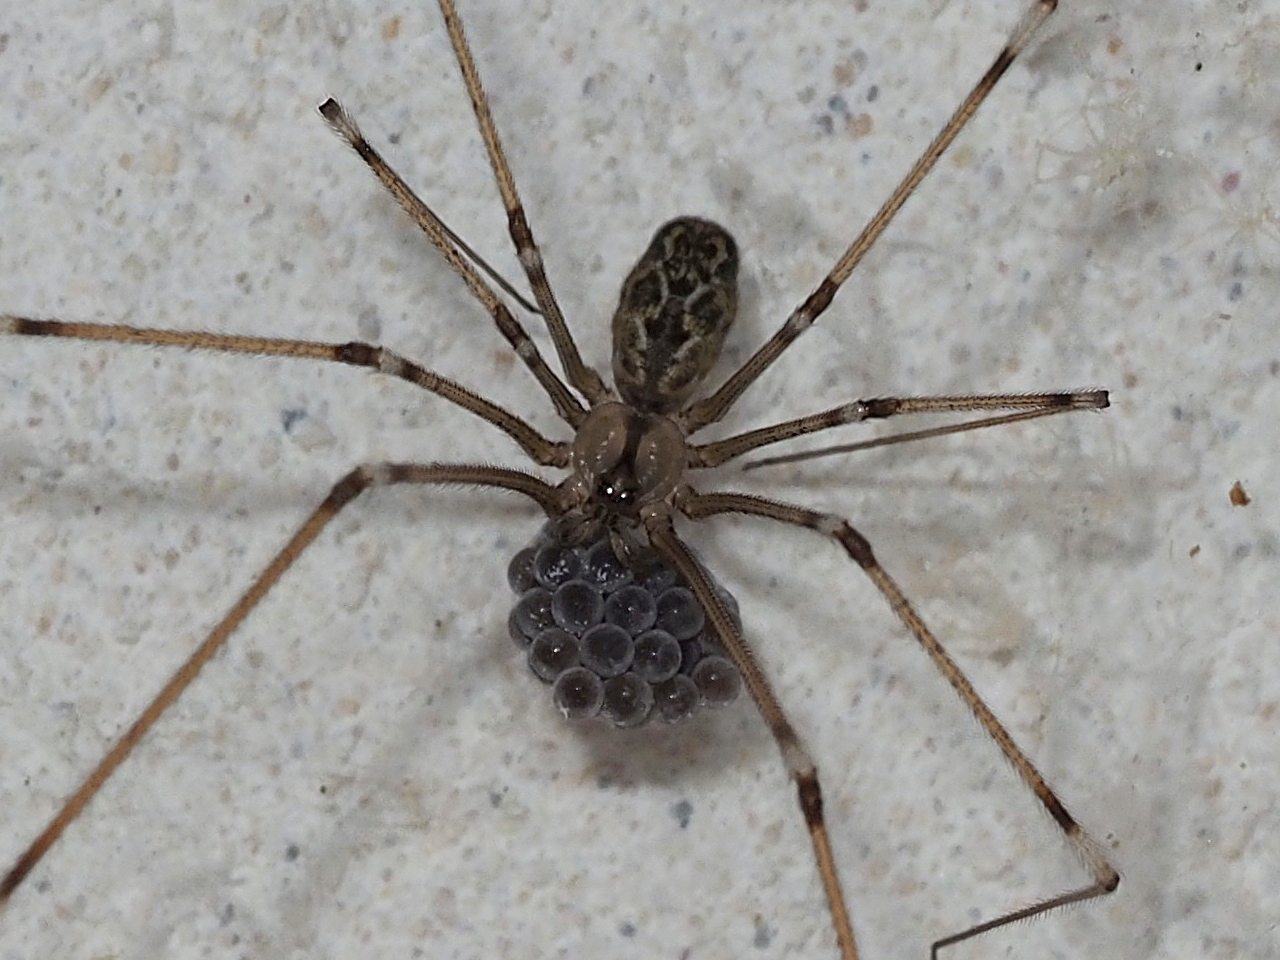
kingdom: Animalia
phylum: Arthropoda
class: Arachnida
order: Araneae
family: Pholcidae
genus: Holocnemus
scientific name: Holocnemus pluchei
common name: Marbled cellar spider
